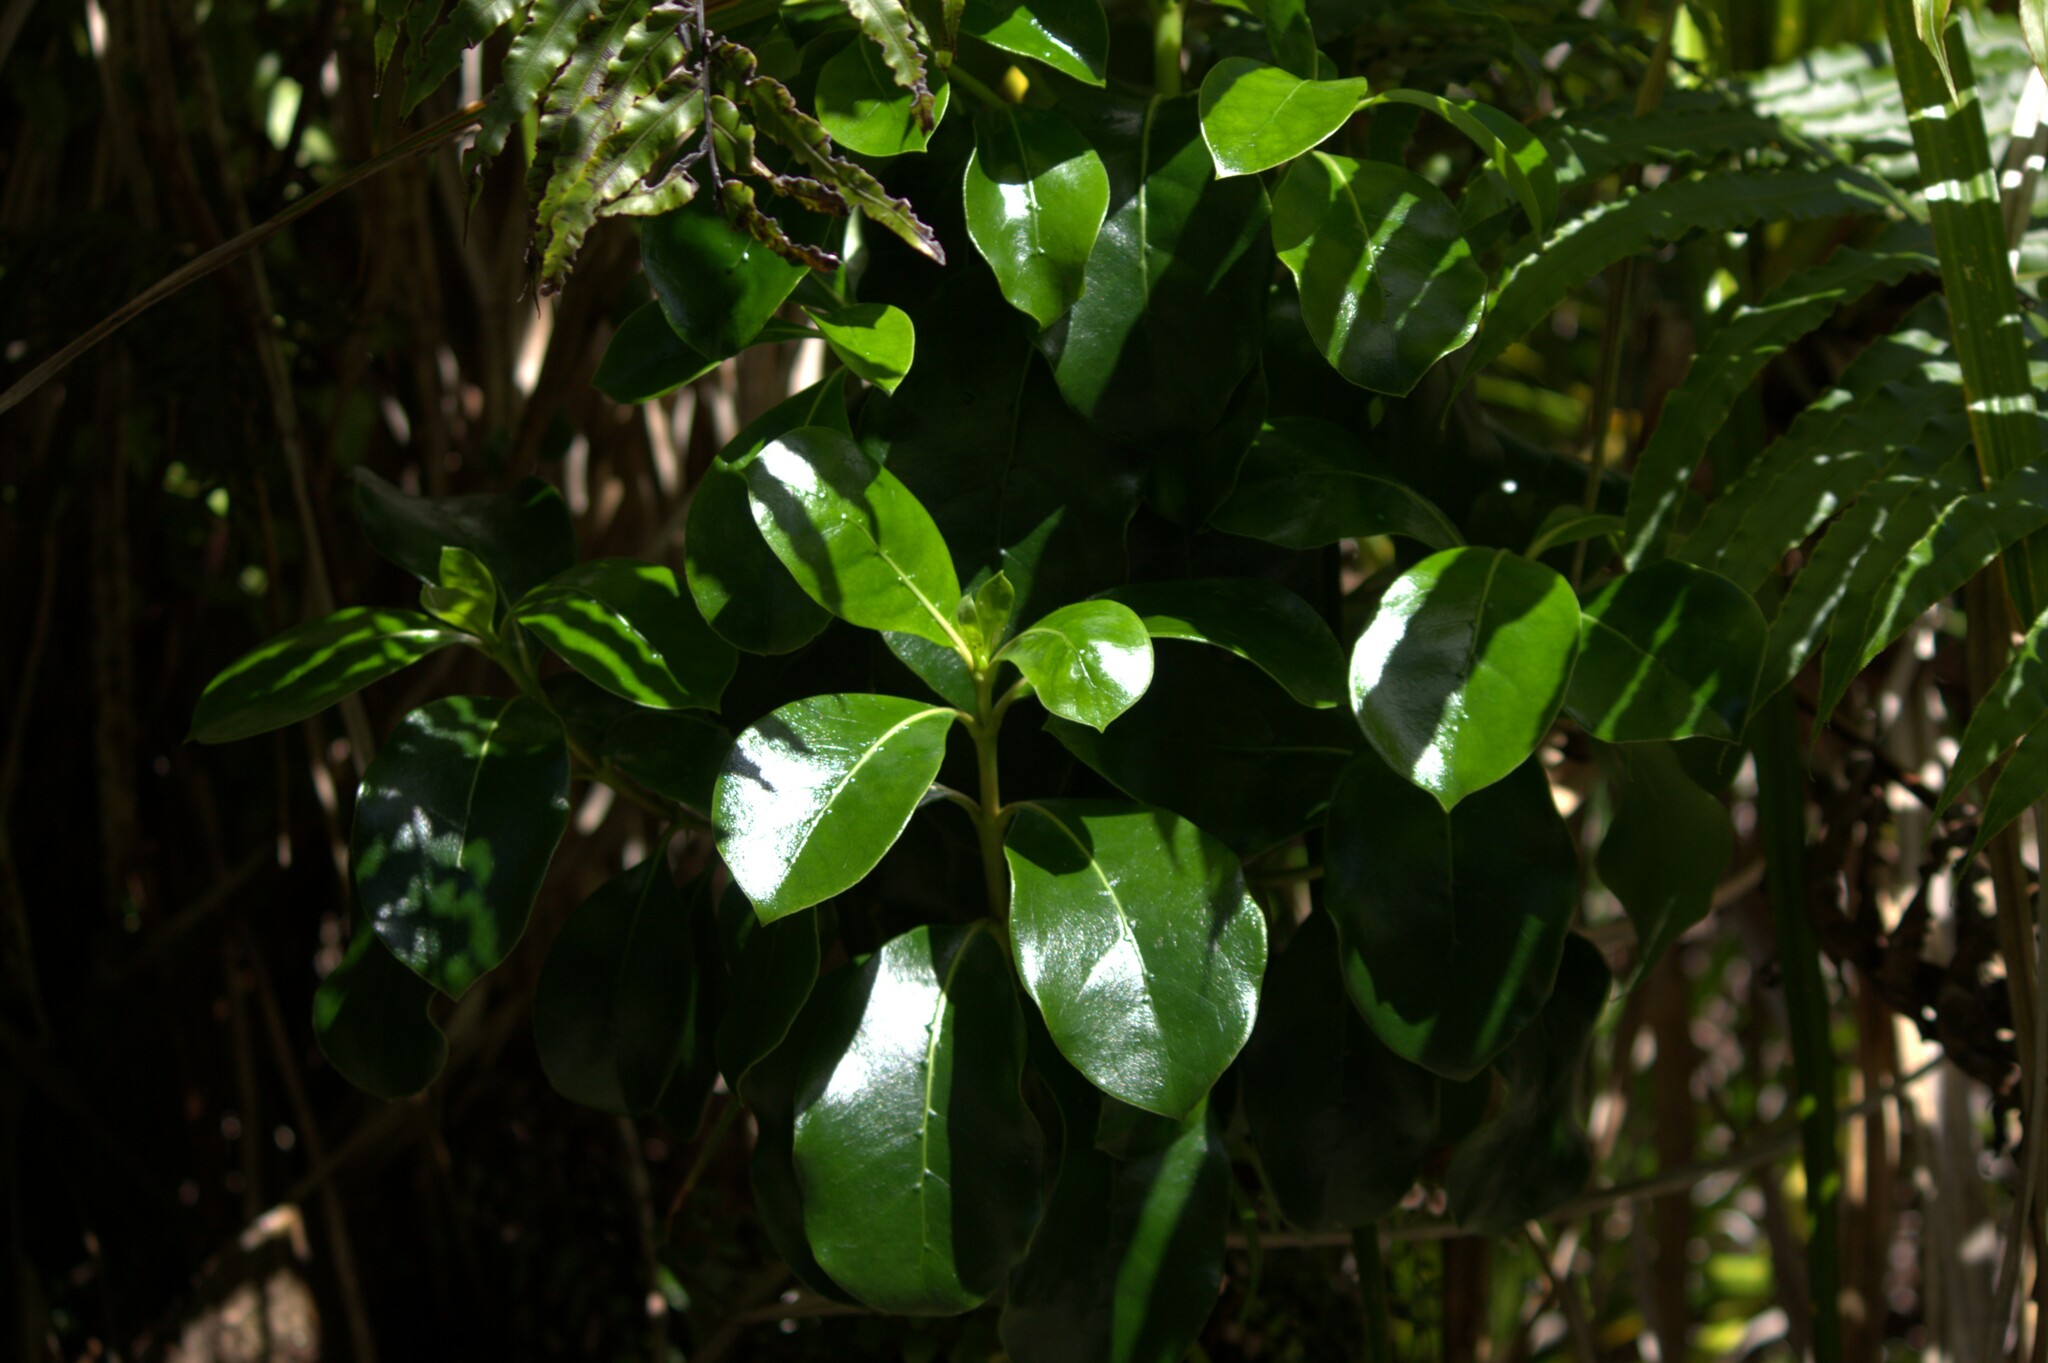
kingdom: Plantae
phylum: Tracheophyta
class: Magnoliopsida
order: Gentianales
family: Rubiaceae
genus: Coprosma
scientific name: Coprosma lucida
